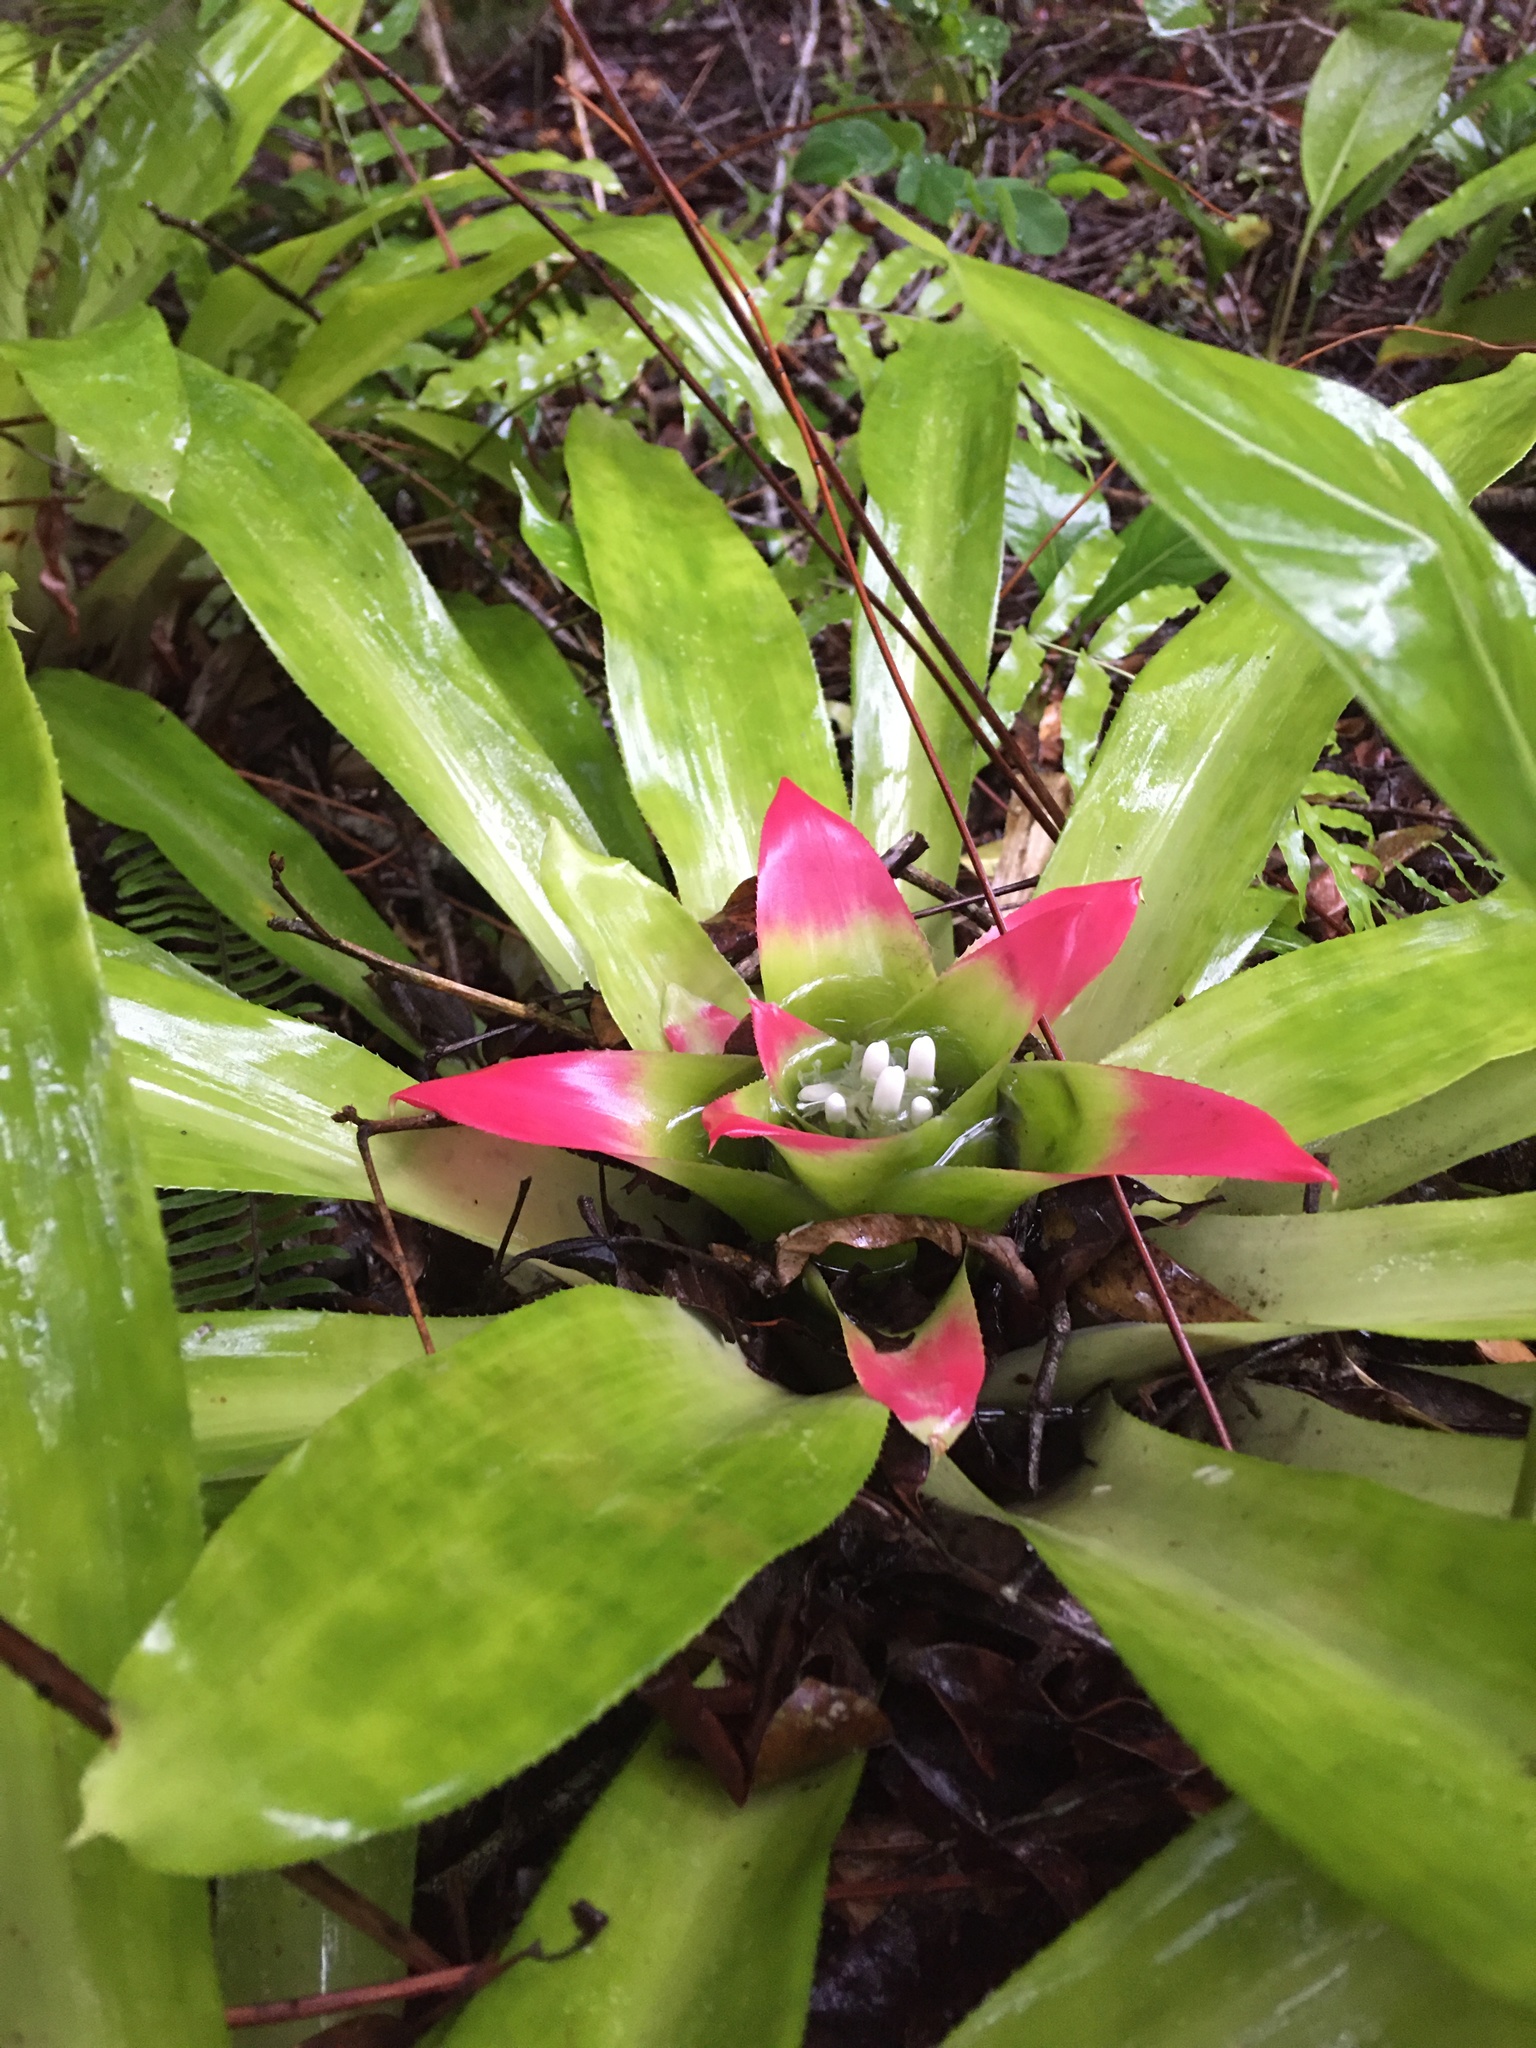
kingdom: Plantae
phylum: Tracheophyta
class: Liliopsida
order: Poales
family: Bromeliaceae
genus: Nidularium
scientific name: Nidularium innocentii
